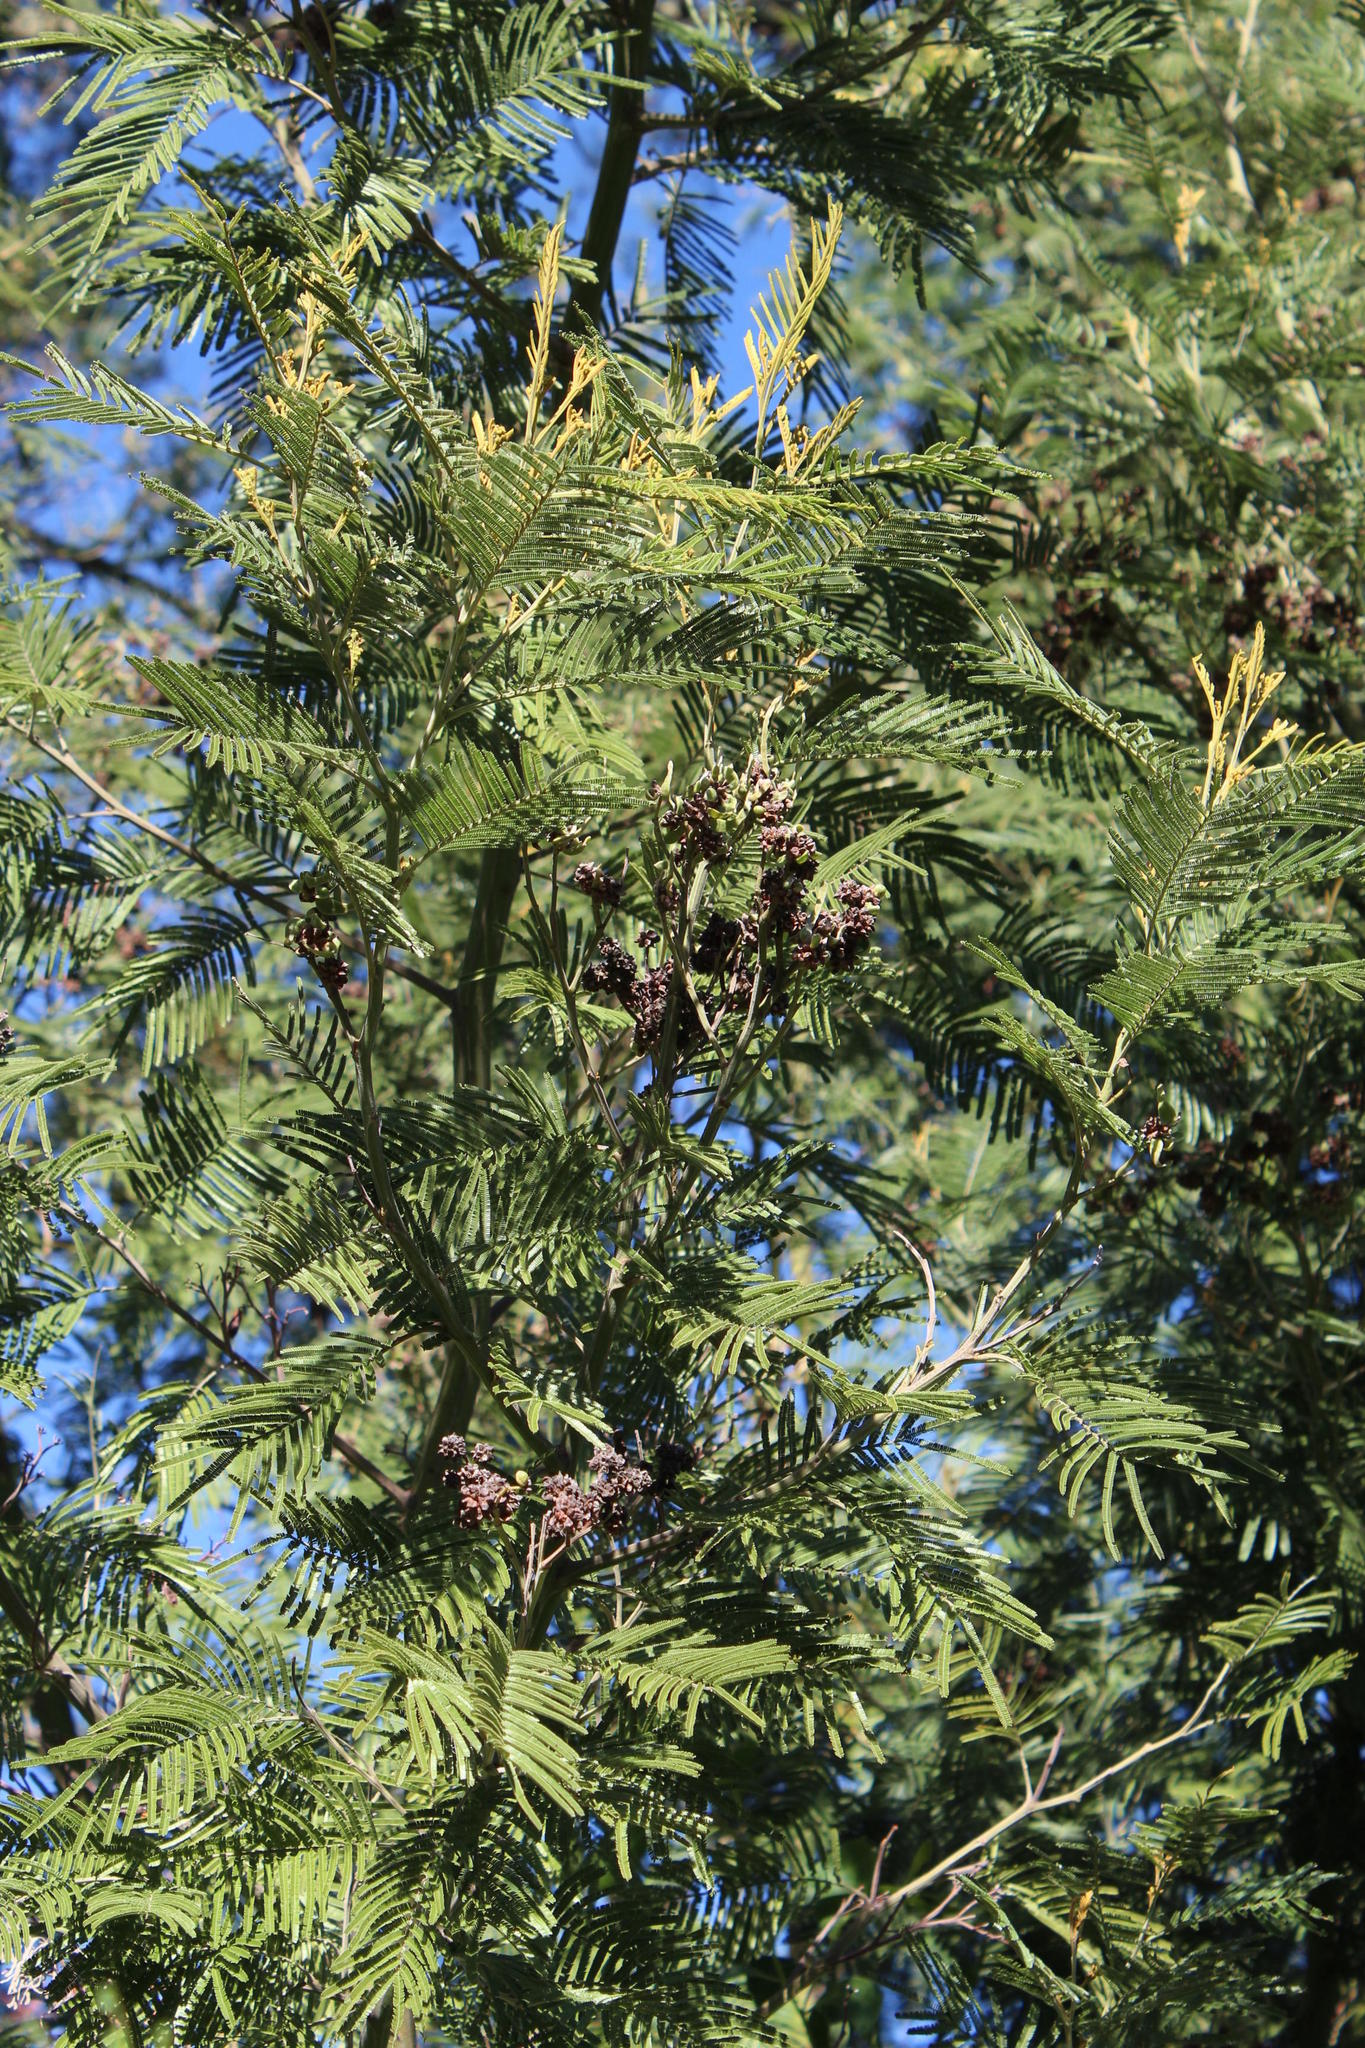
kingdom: Plantae
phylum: Tracheophyta
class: Magnoliopsida
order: Fabales
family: Fabaceae
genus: Acacia
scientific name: Acacia mearnsii
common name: Black wattle
